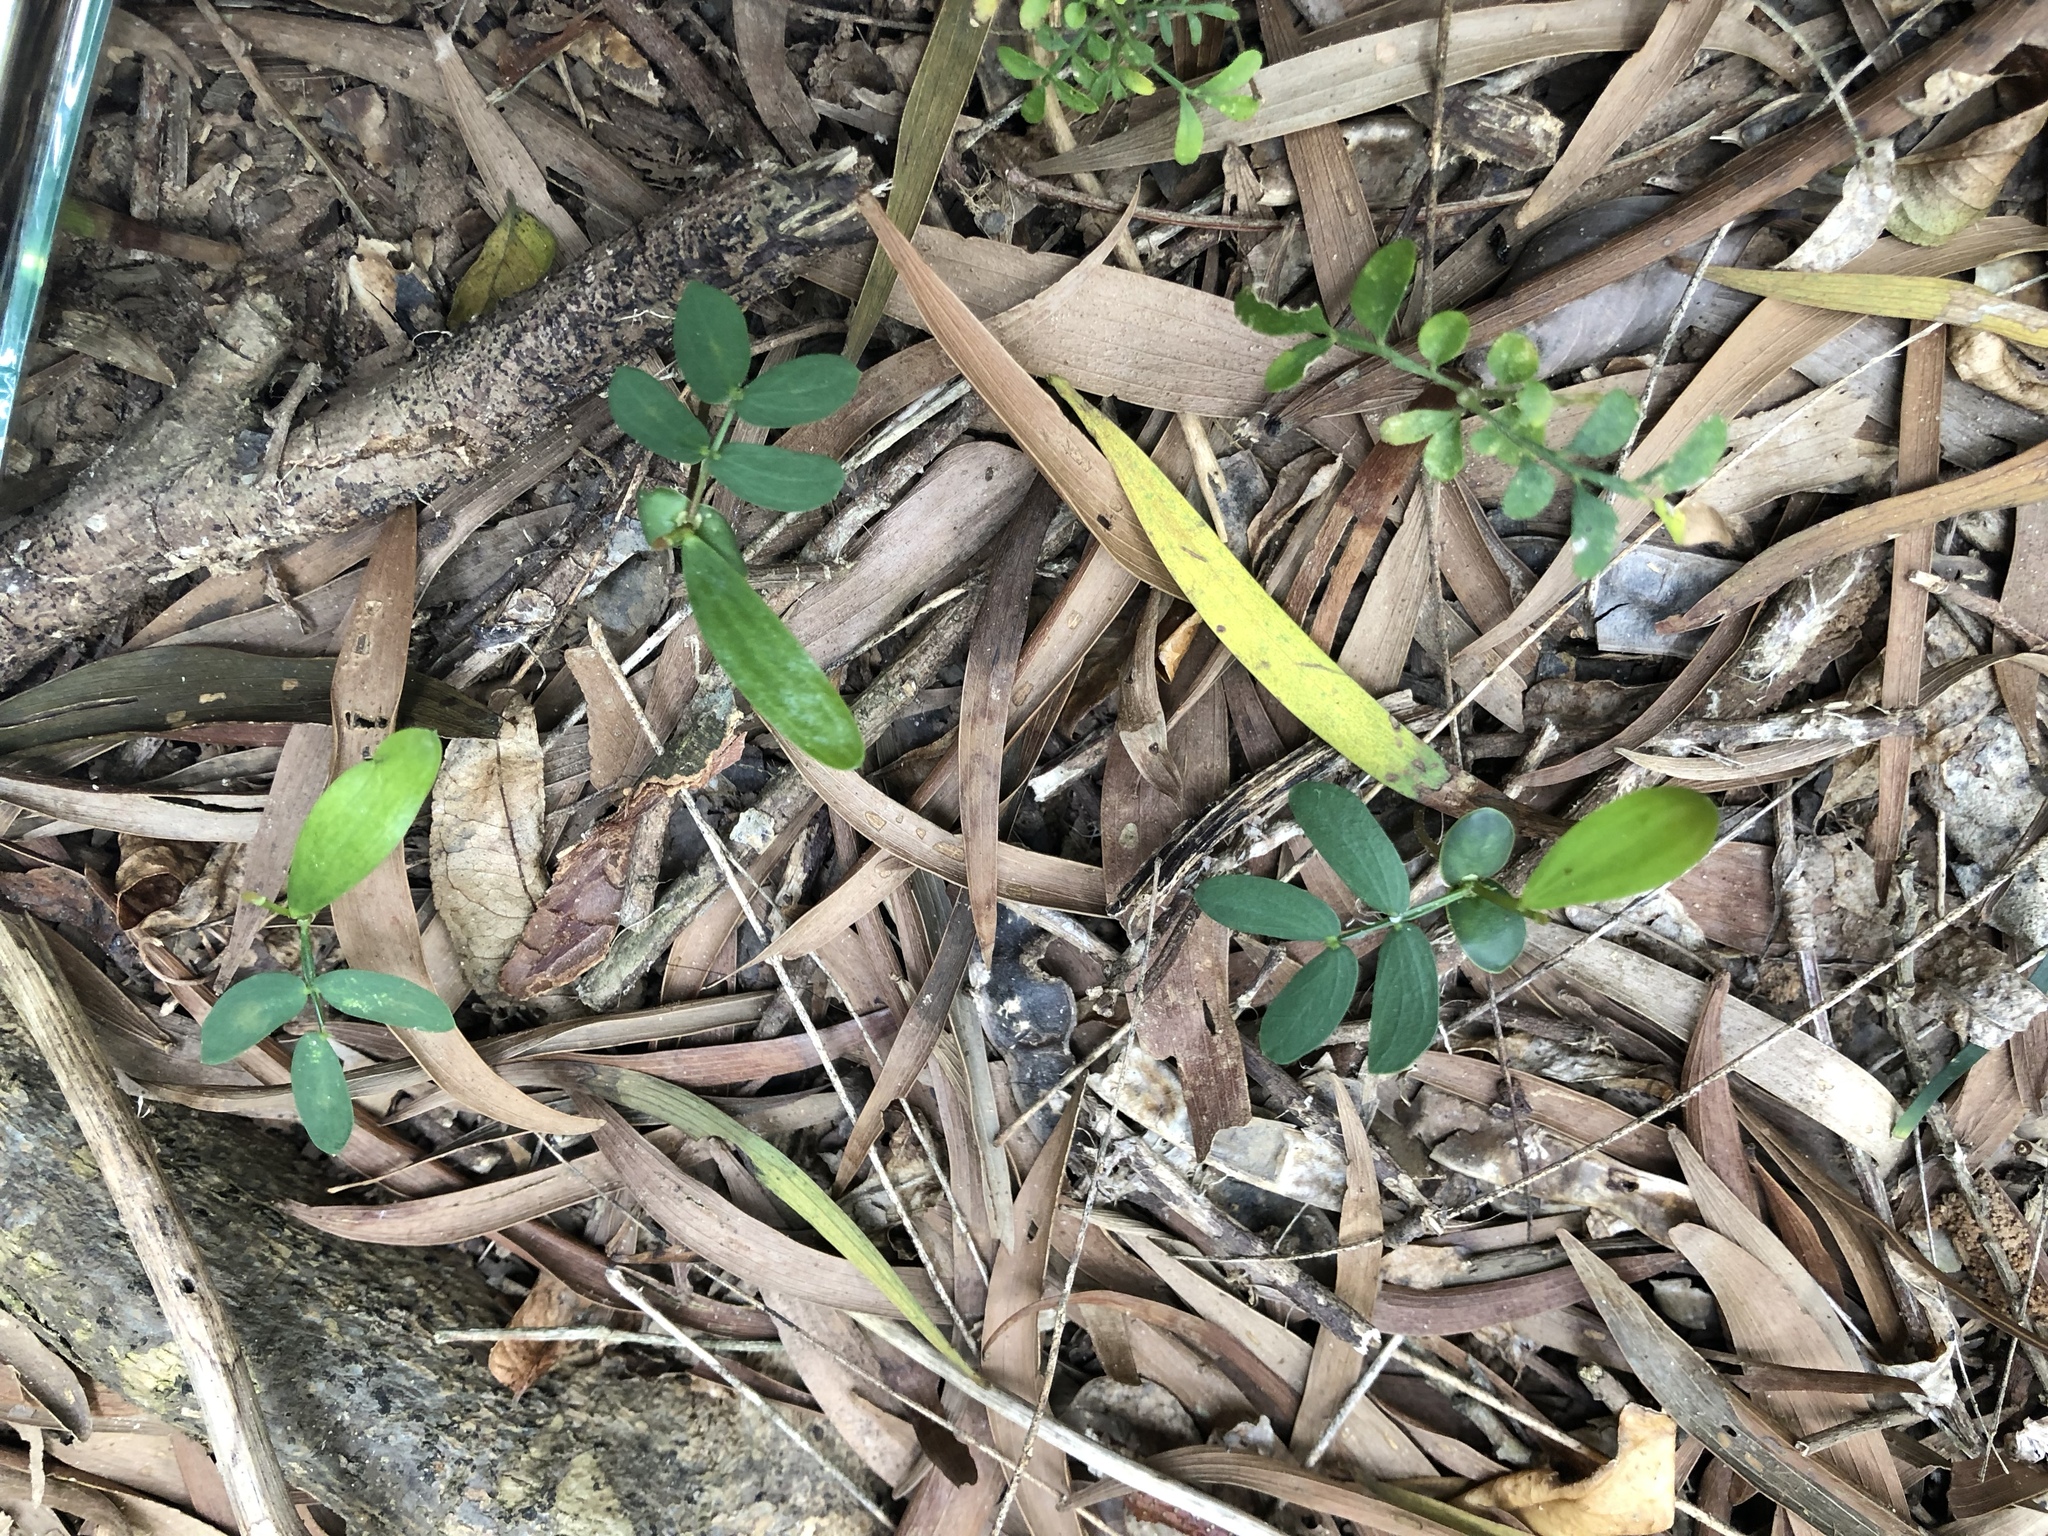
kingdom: Plantae
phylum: Tracheophyta
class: Magnoliopsida
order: Fabales
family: Fabaceae
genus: Acacia
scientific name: Acacia confusa
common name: Formosan koa
